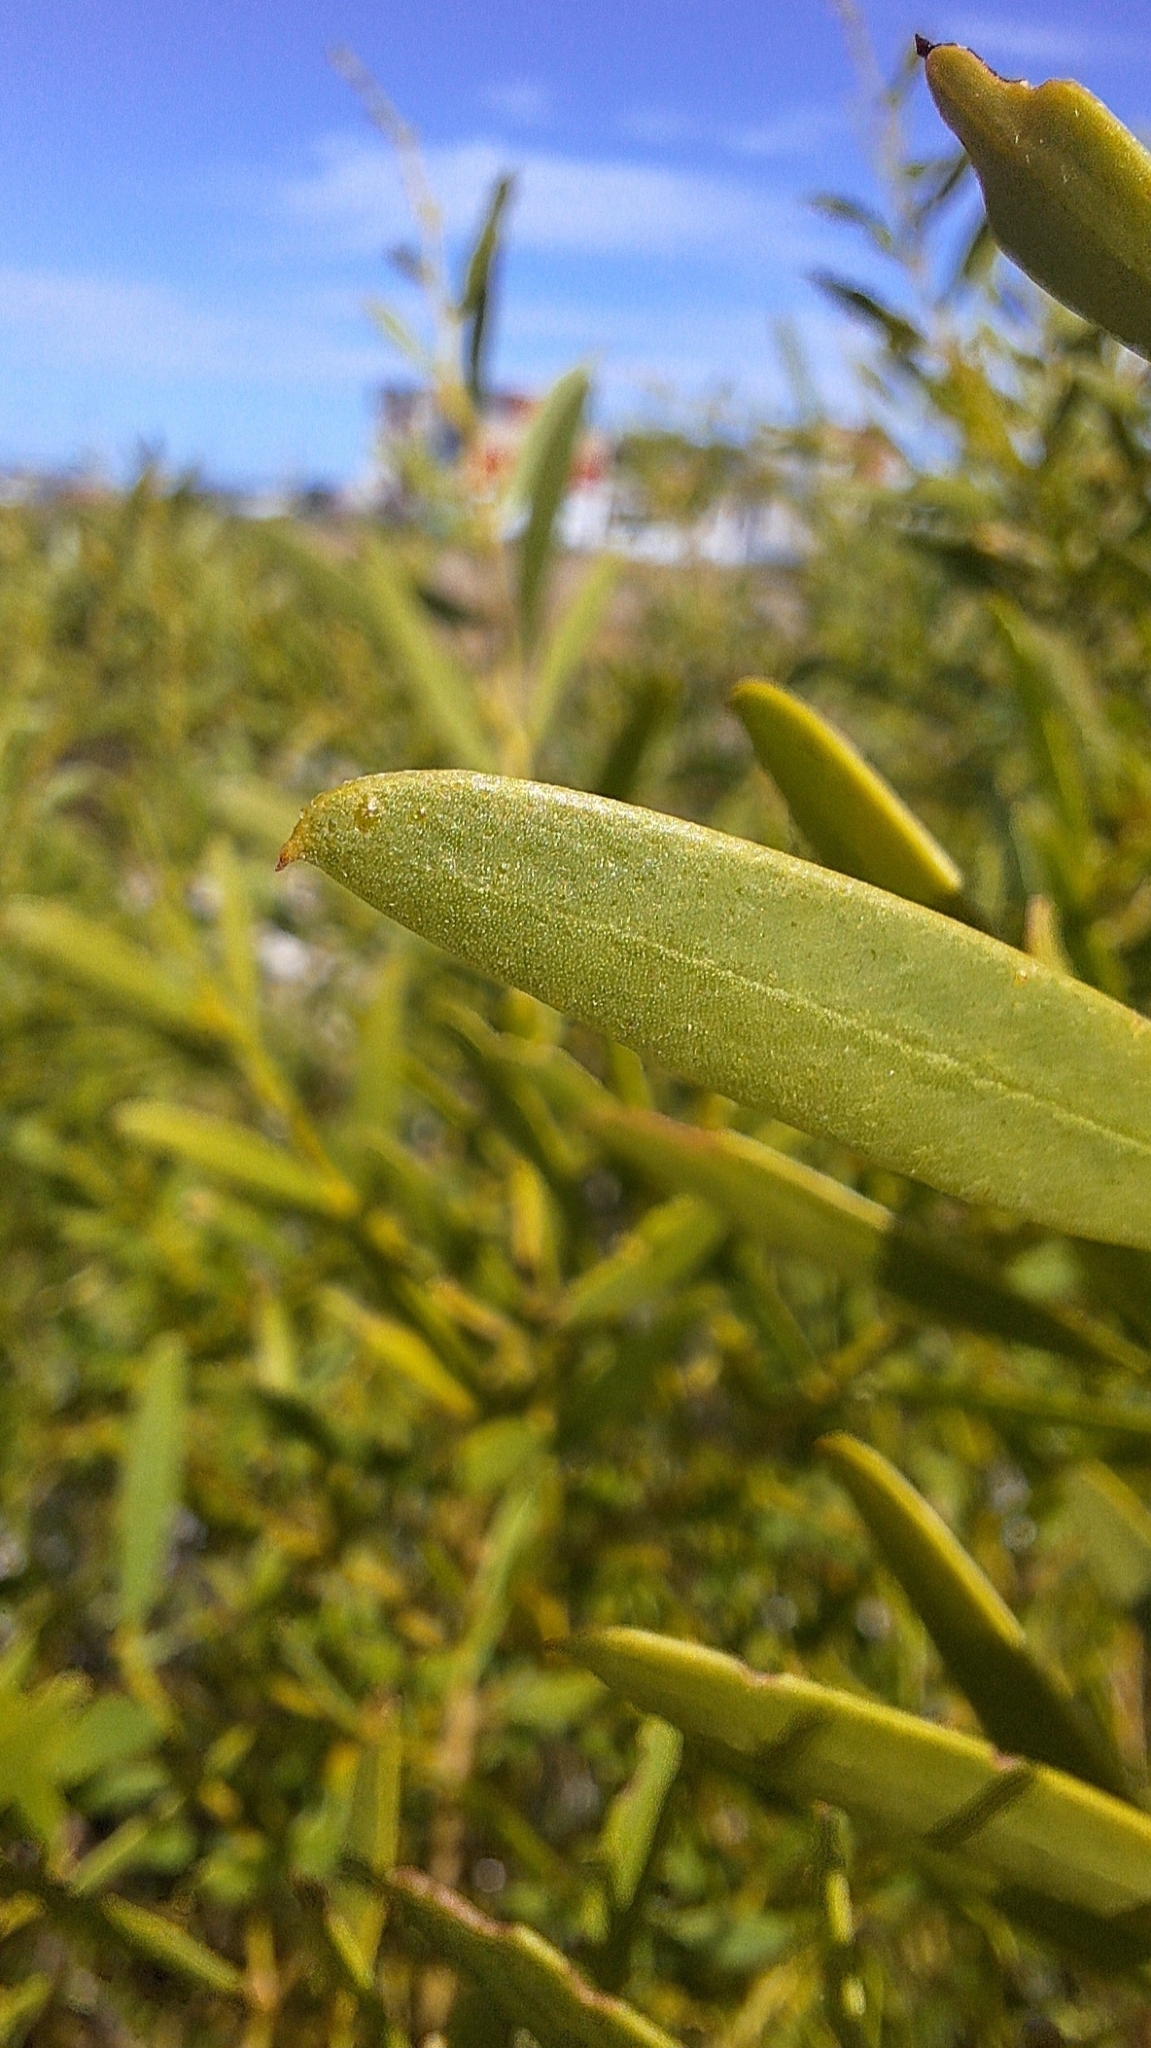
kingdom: Plantae
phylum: Tracheophyta
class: Magnoliopsida
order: Fabales
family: Fabaceae
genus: Acacia
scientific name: Acacia ligulata
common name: Dune wattle
